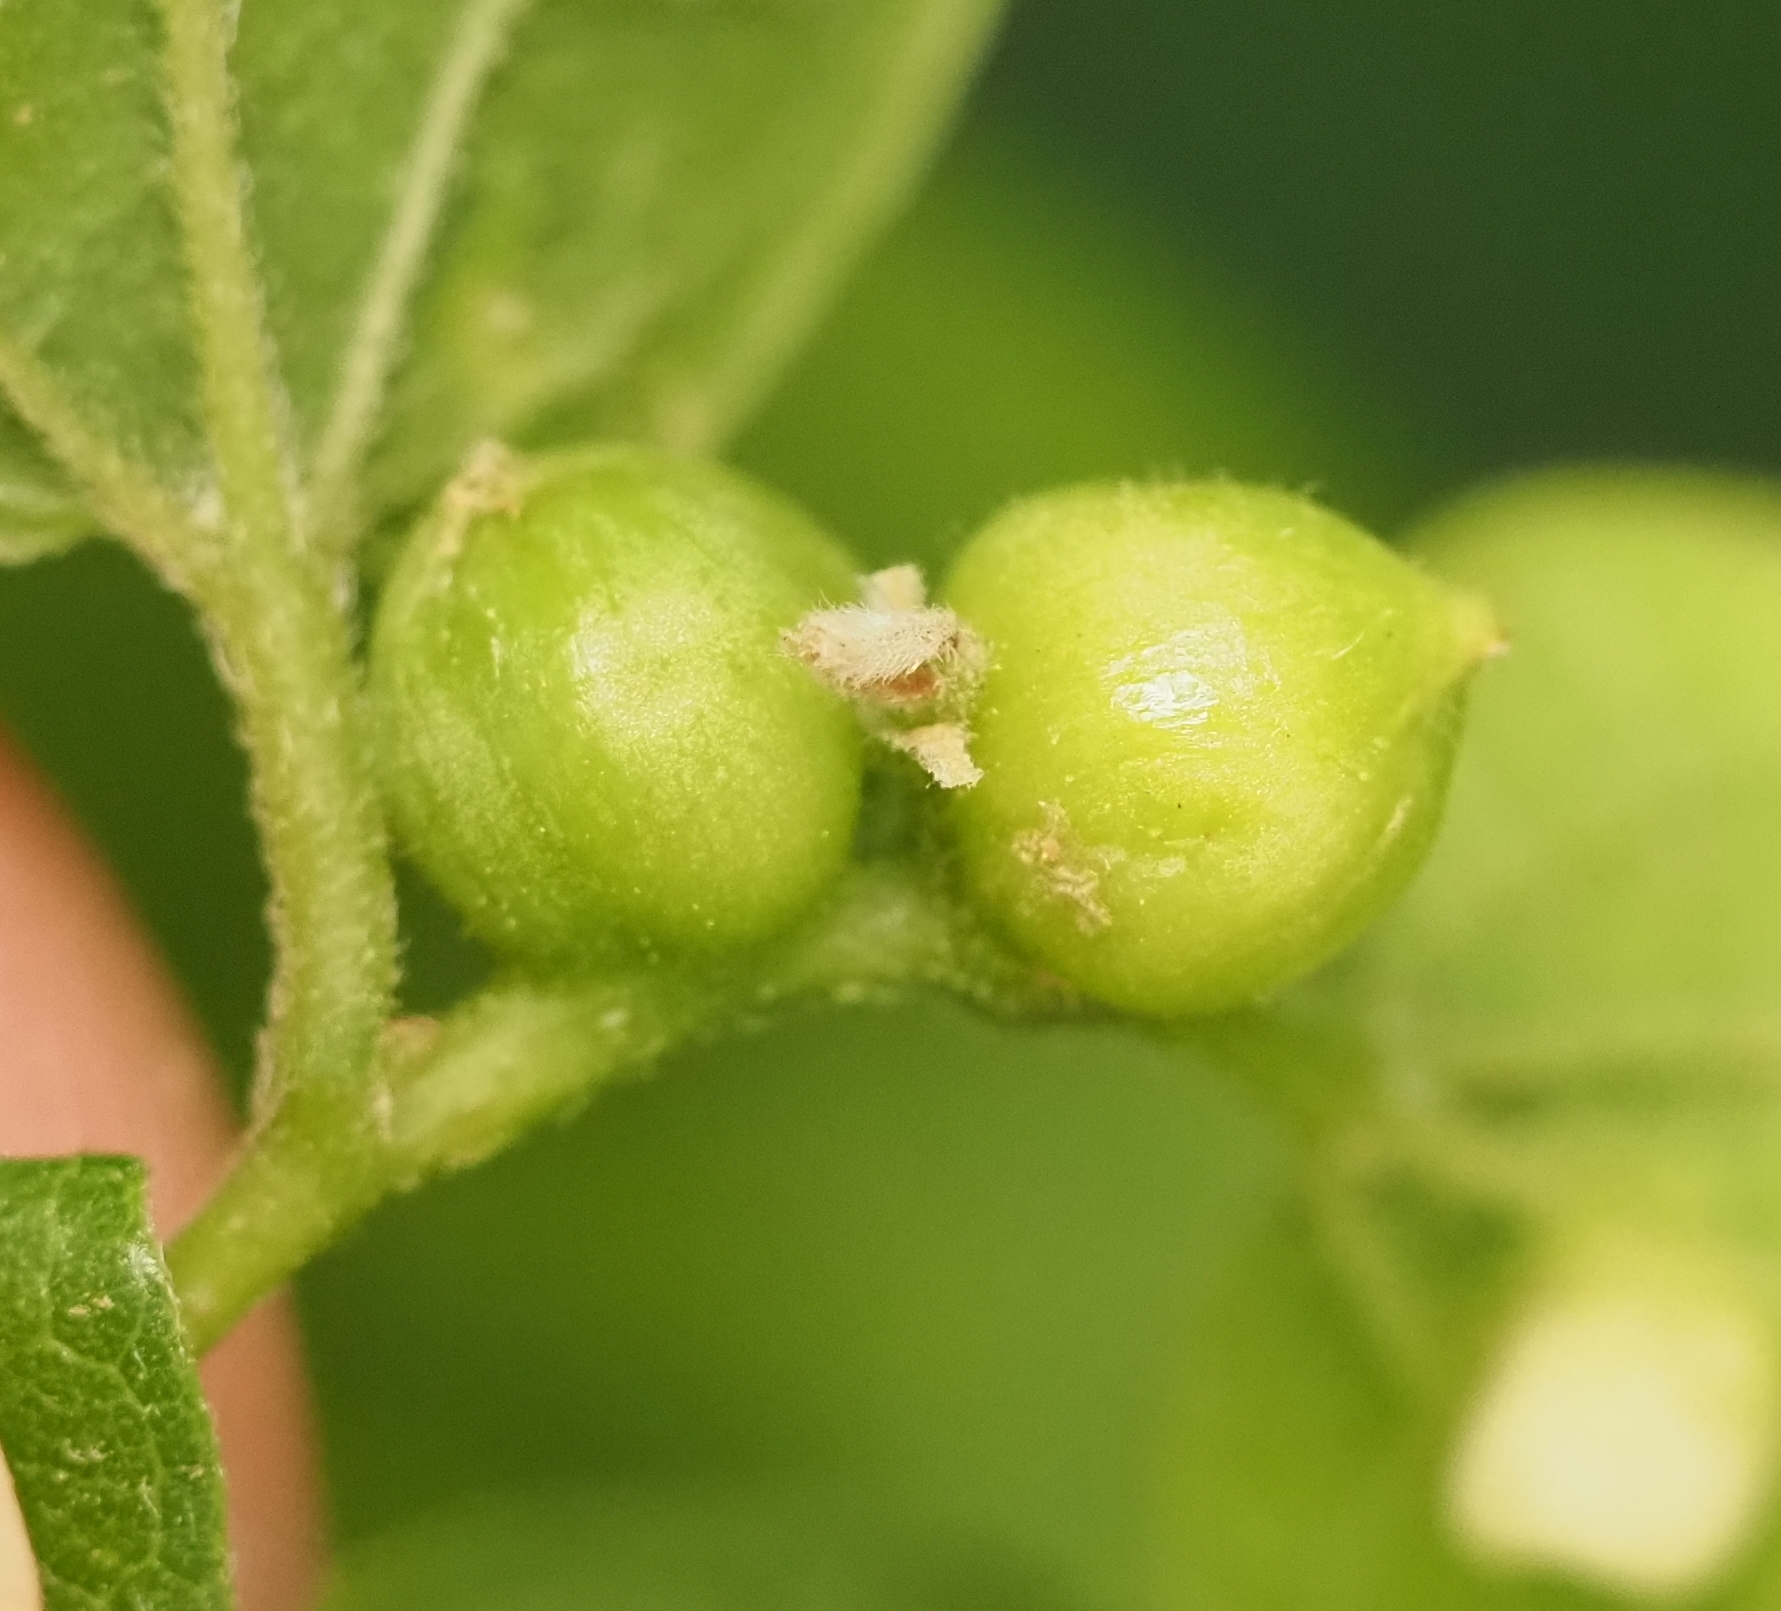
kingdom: Animalia
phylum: Arthropoda
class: Insecta
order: Diptera
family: Cecidomyiidae
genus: Celticecis
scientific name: Celticecis connata
